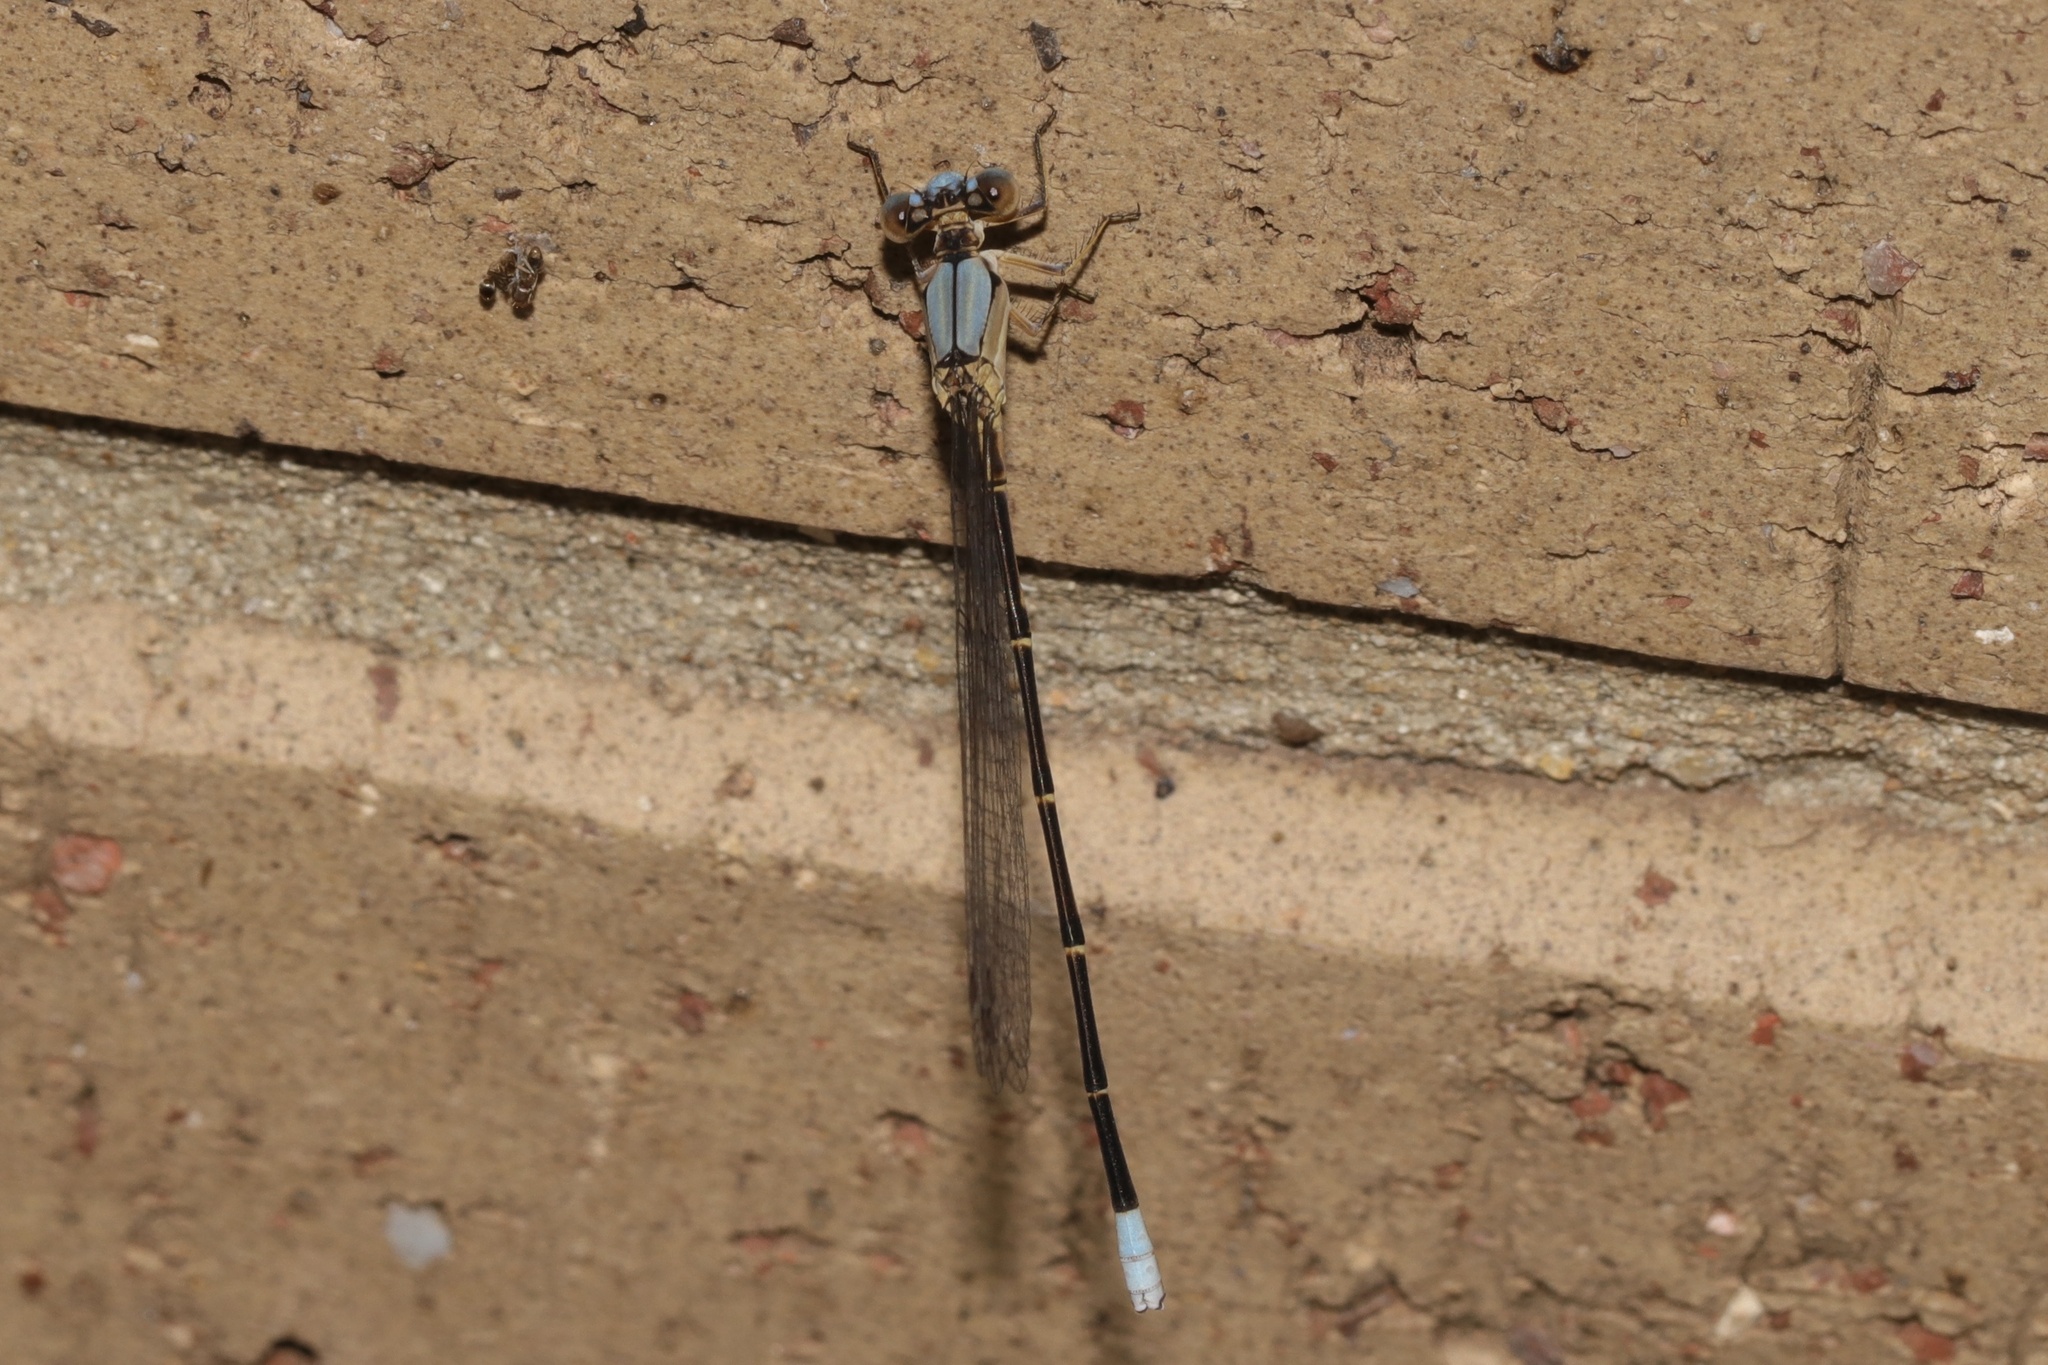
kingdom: Animalia
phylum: Arthropoda
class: Insecta
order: Odonata
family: Coenagrionidae
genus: Argia
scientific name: Argia apicalis
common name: Blue-fronted dancer
